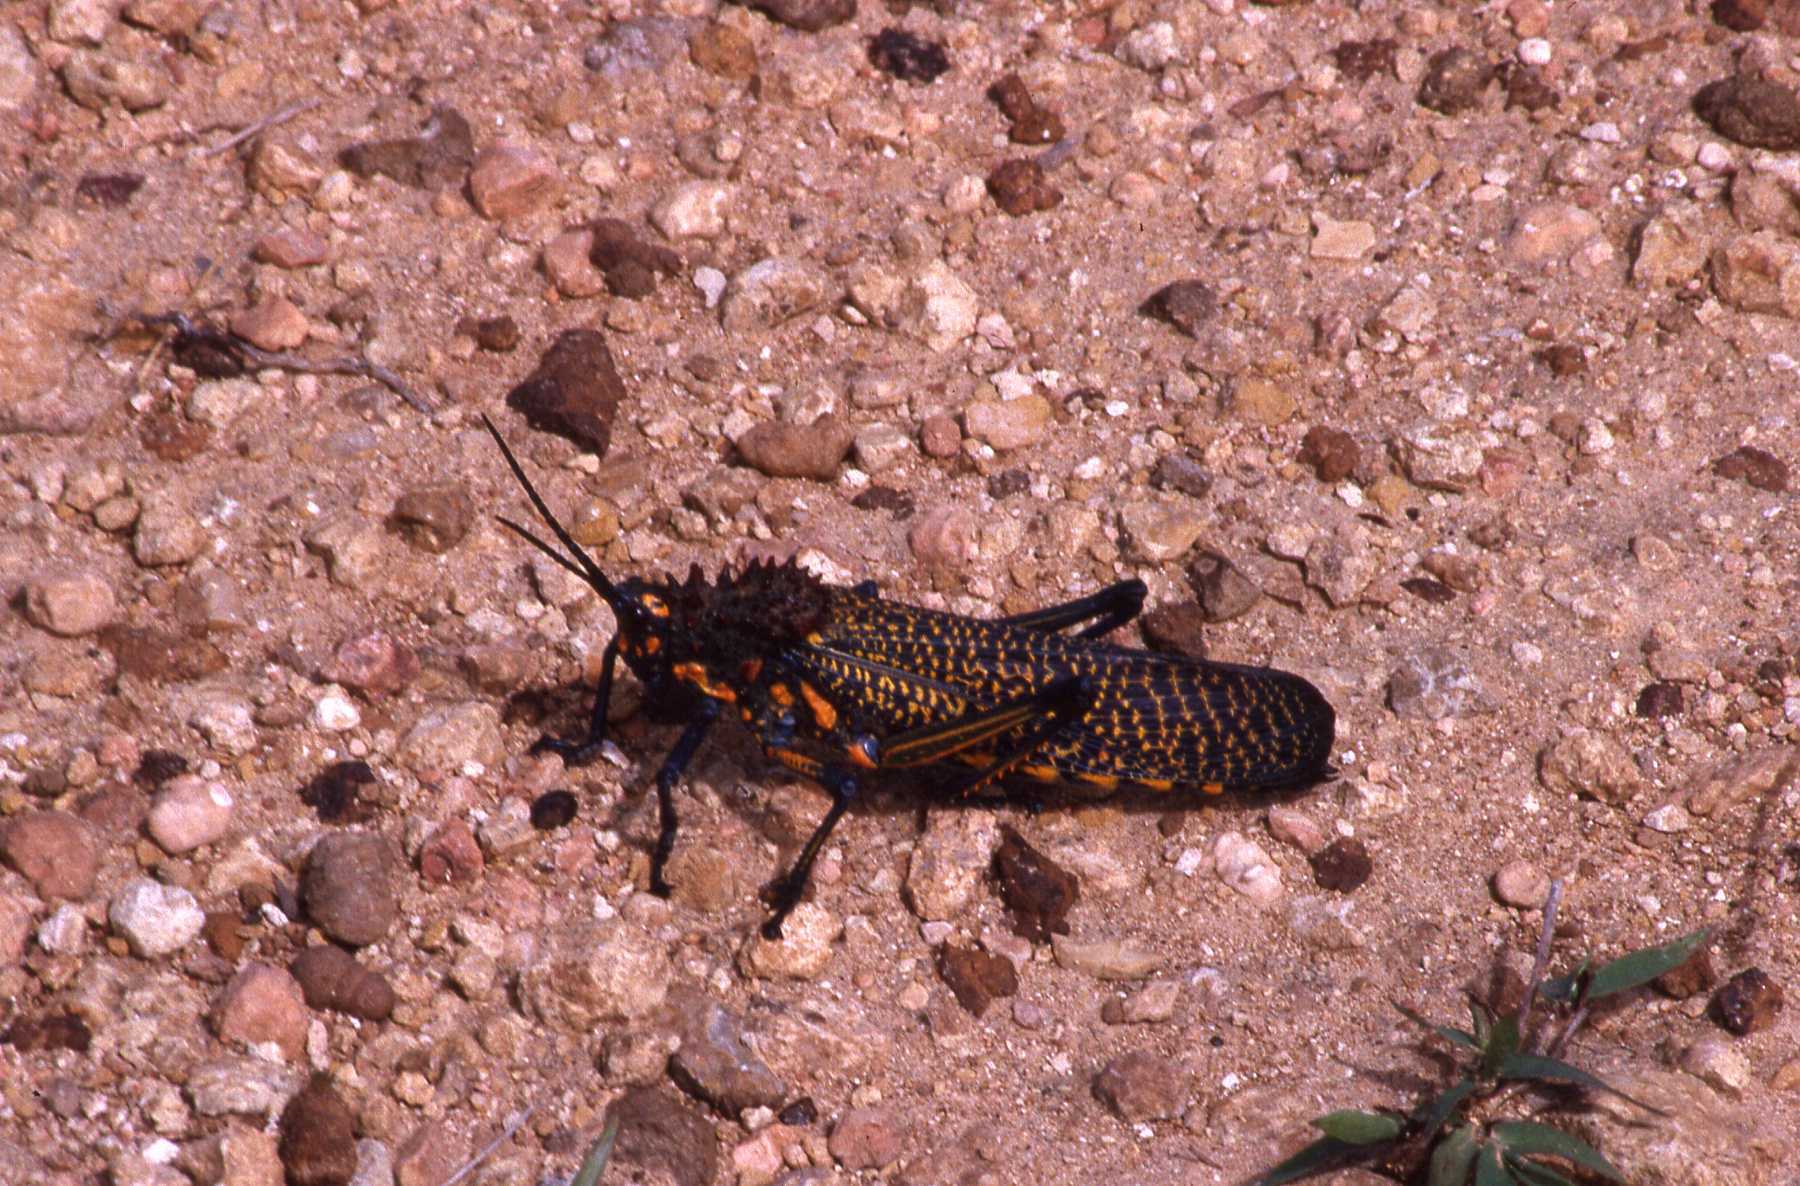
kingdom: Animalia
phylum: Arthropoda
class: Insecta
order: Orthoptera
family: Pyrgomorphidae
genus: Phymateus
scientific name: Phymateus saxosus
